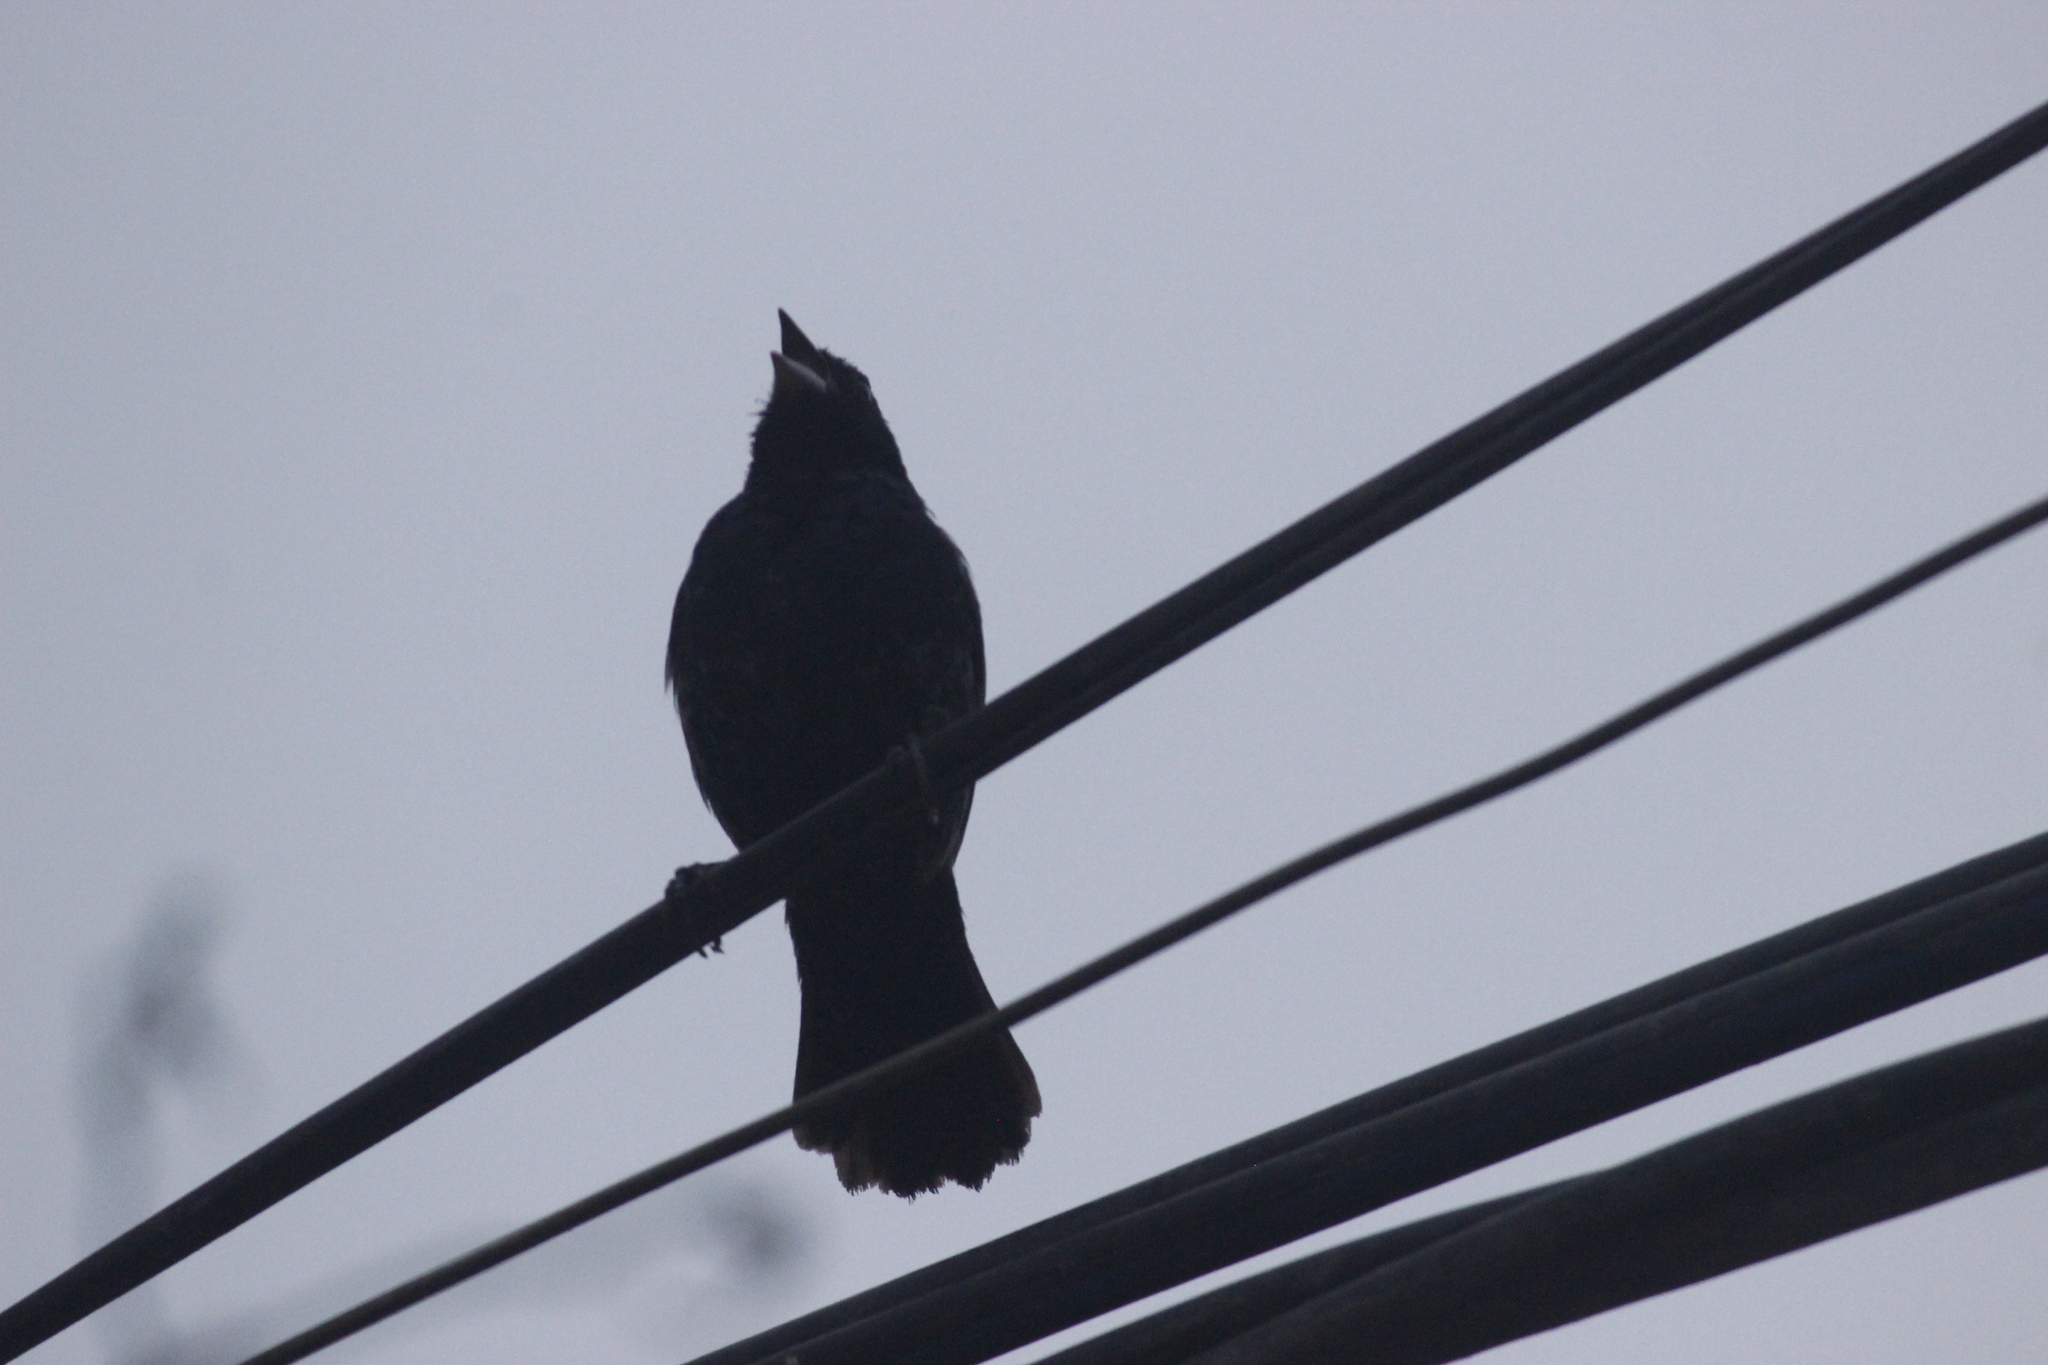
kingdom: Animalia
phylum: Chordata
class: Aves
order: Passeriformes
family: Icteridae
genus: Dives
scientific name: Dives warczewiczi
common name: Scrub blackbird
